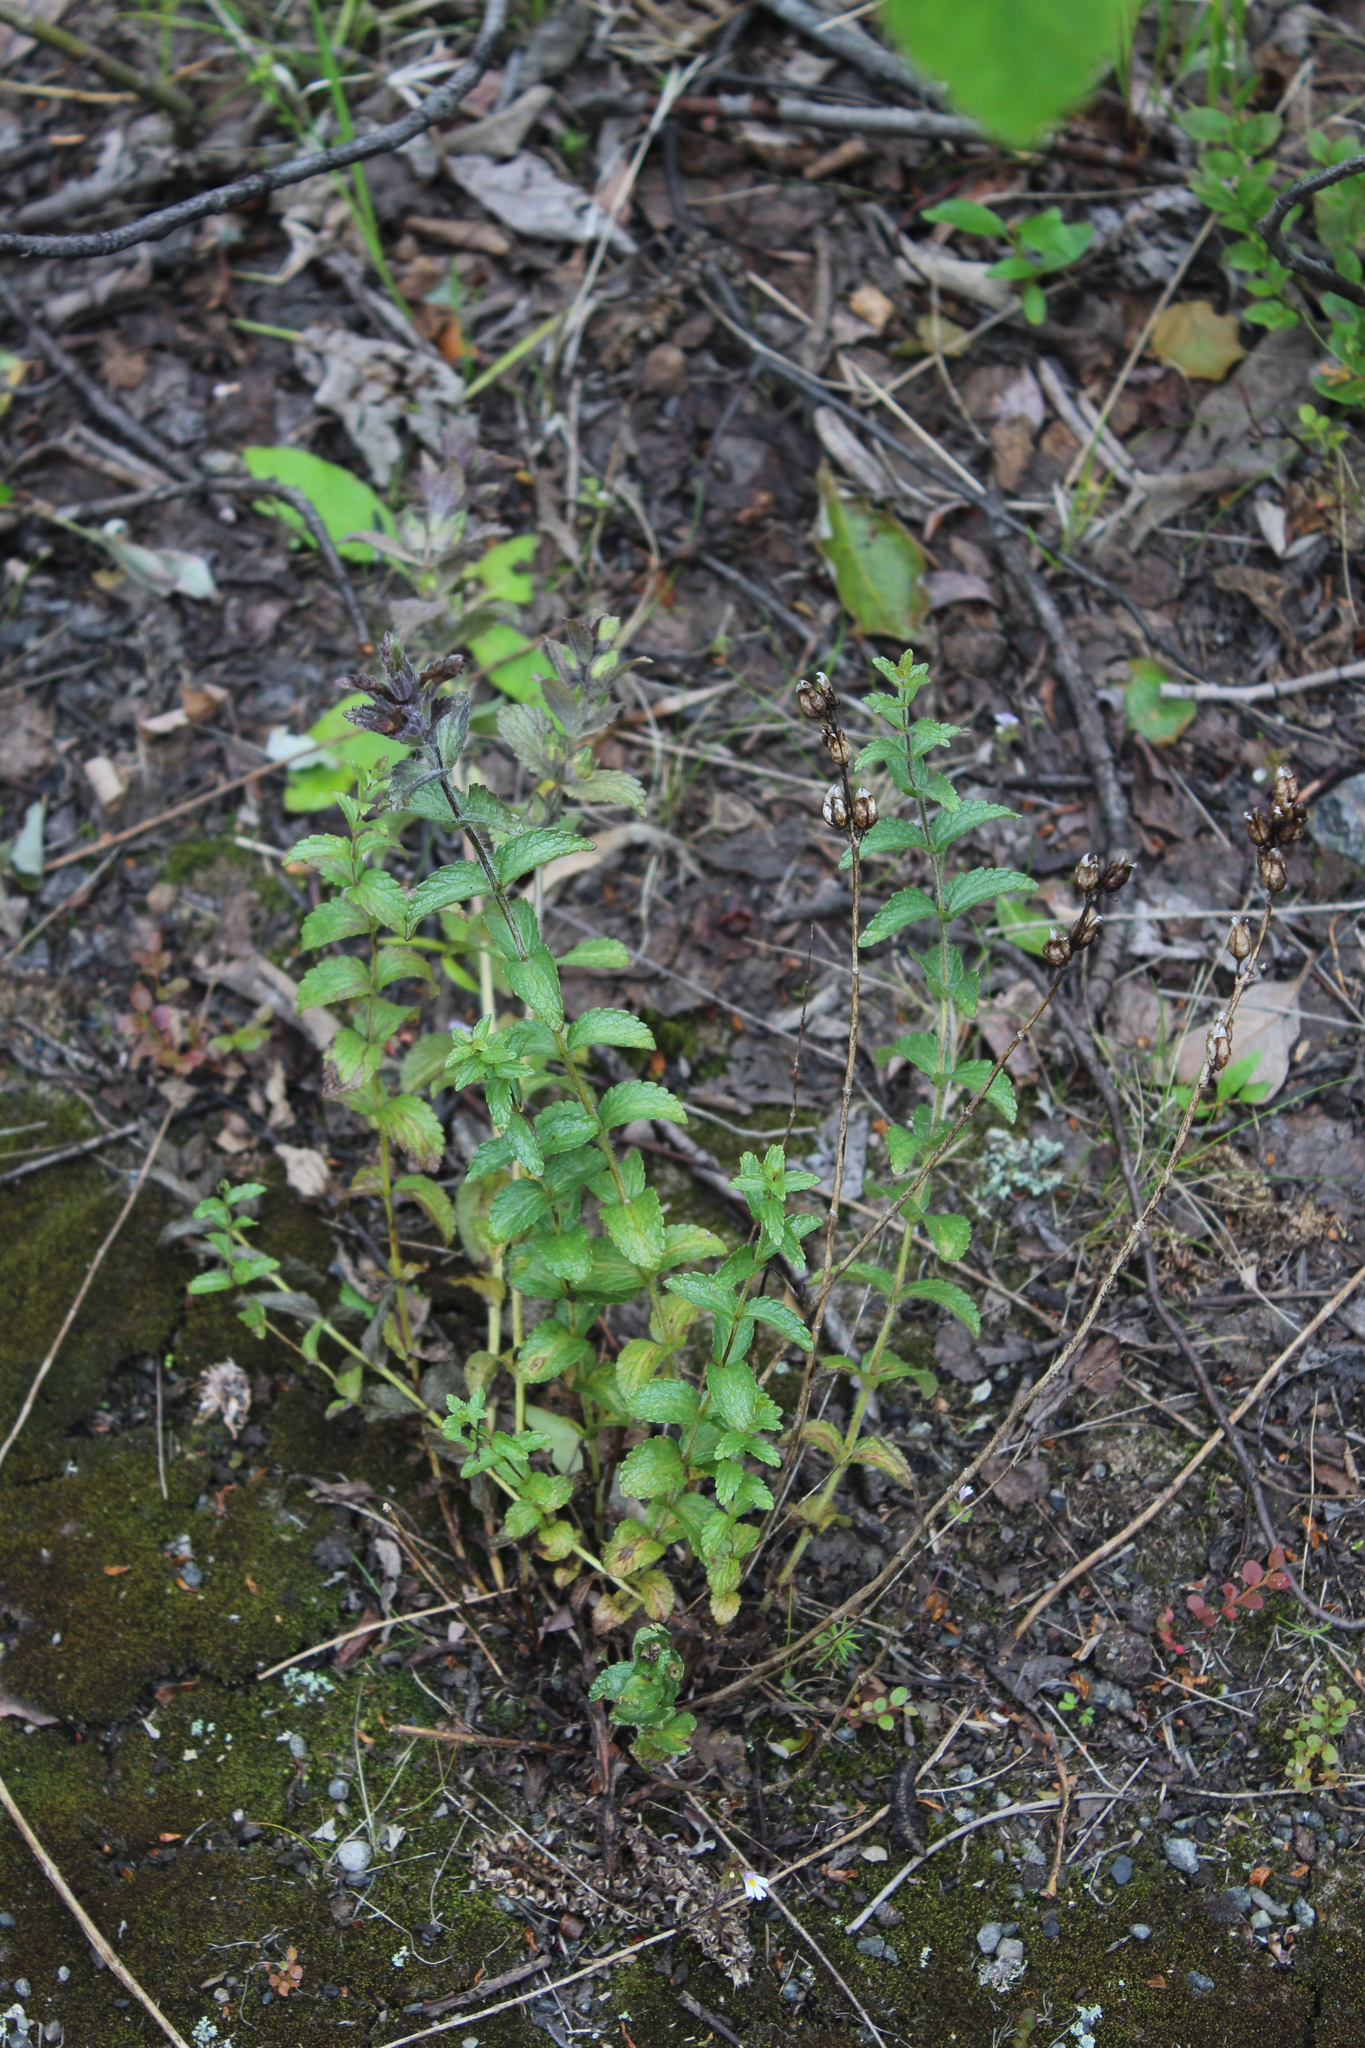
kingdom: Plantae
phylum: Tracheophyta
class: Magnoliopsida
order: Lamiales
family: Orobanchaceae
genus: Bartsia
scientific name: Bartsia alpina
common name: Alpine bartsia
